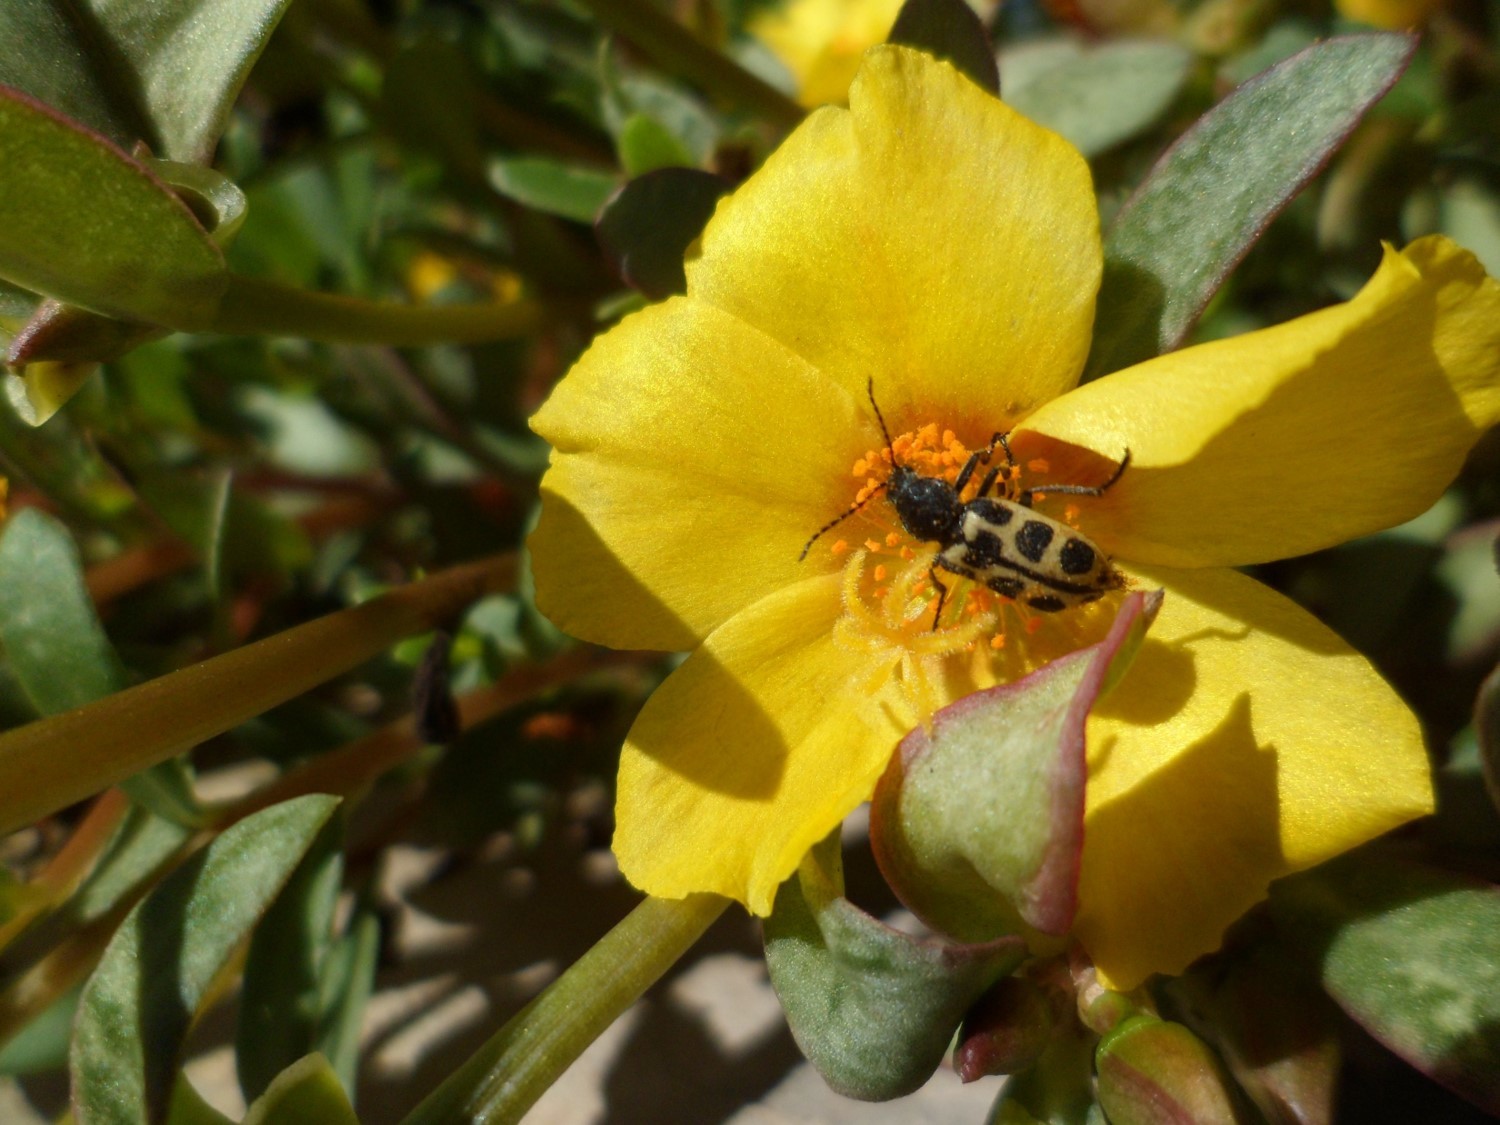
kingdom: Animalia
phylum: Arthropoda
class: Insecta
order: Coleoptera
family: Melyridae
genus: Astylus
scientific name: Astylus
